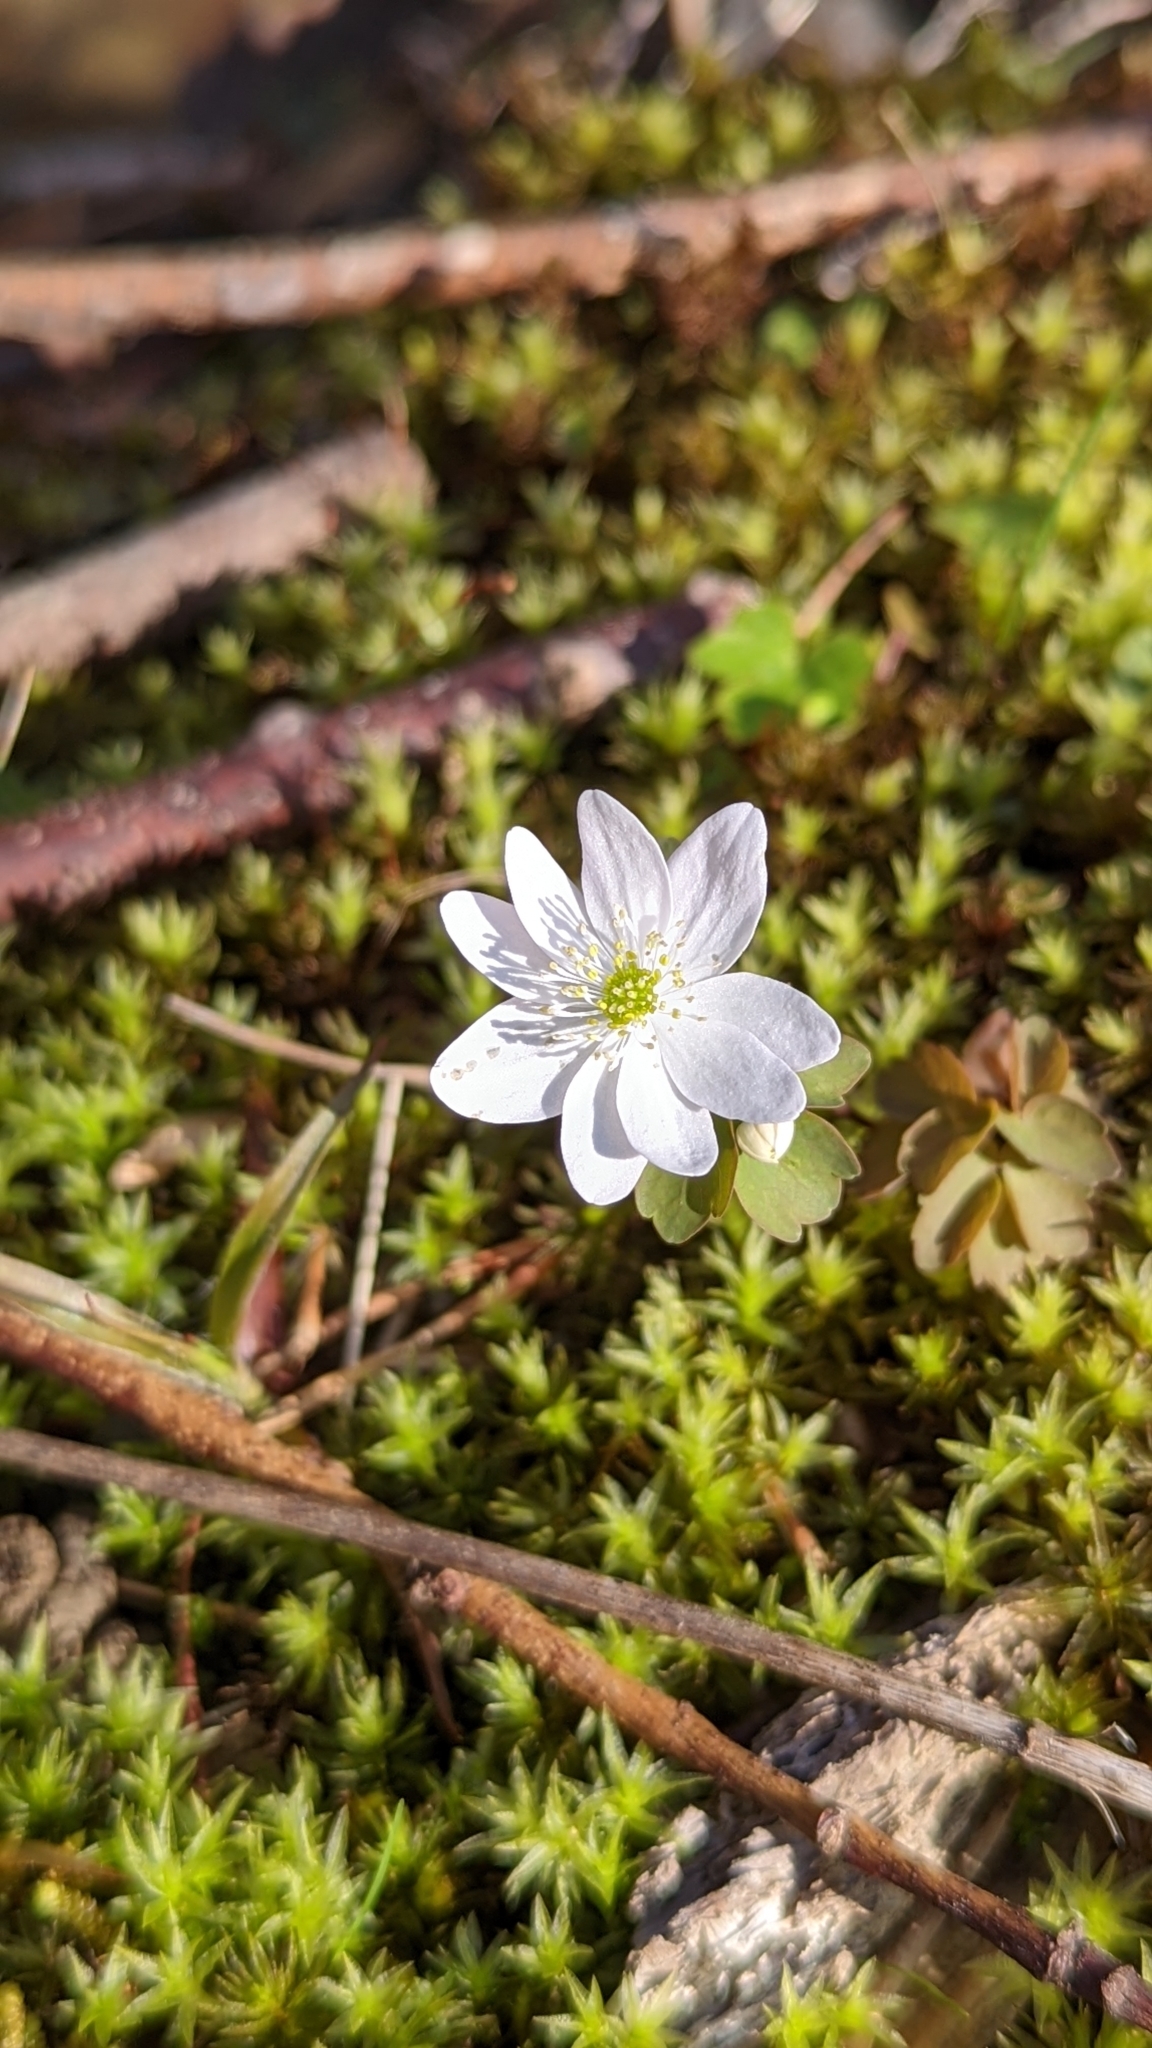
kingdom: Plantae
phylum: Tracheophyta
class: Magnoliopsida
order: Ranunculales
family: Ranunculaceae
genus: Thalictrum
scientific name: Thalictrum thalictroides
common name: Rue-anemone
